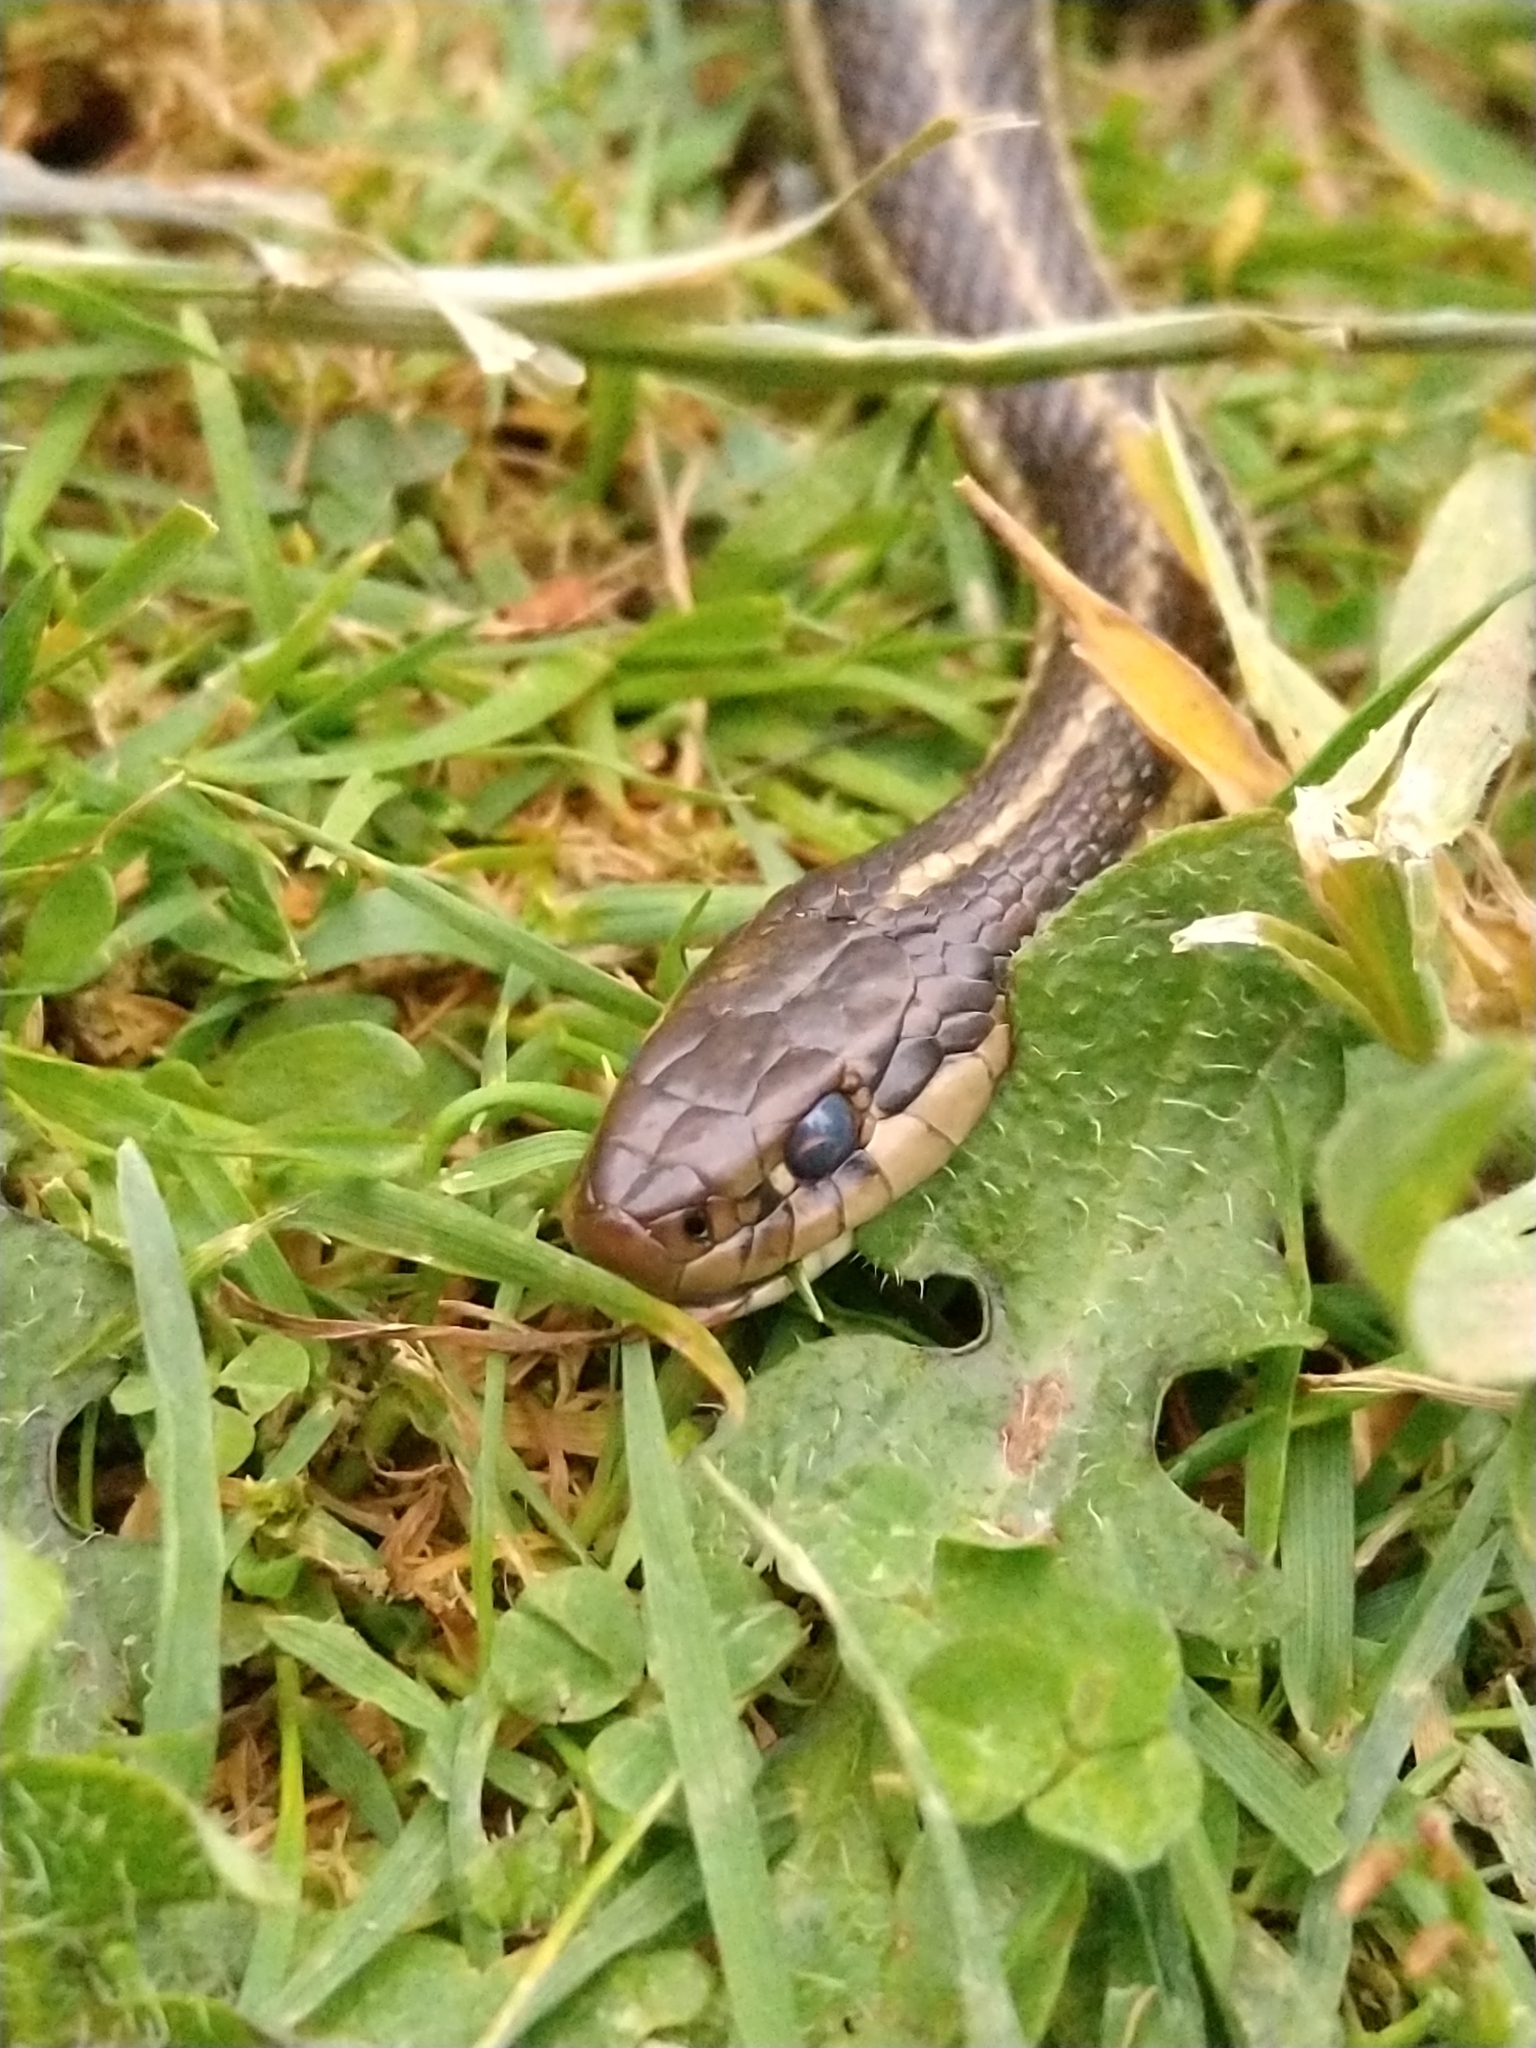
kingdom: Animalia
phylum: Chordata
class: Squamata
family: Colubridae
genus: Thamnophis
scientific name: Thamnophis ordinoides
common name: Northwestern garter snake
